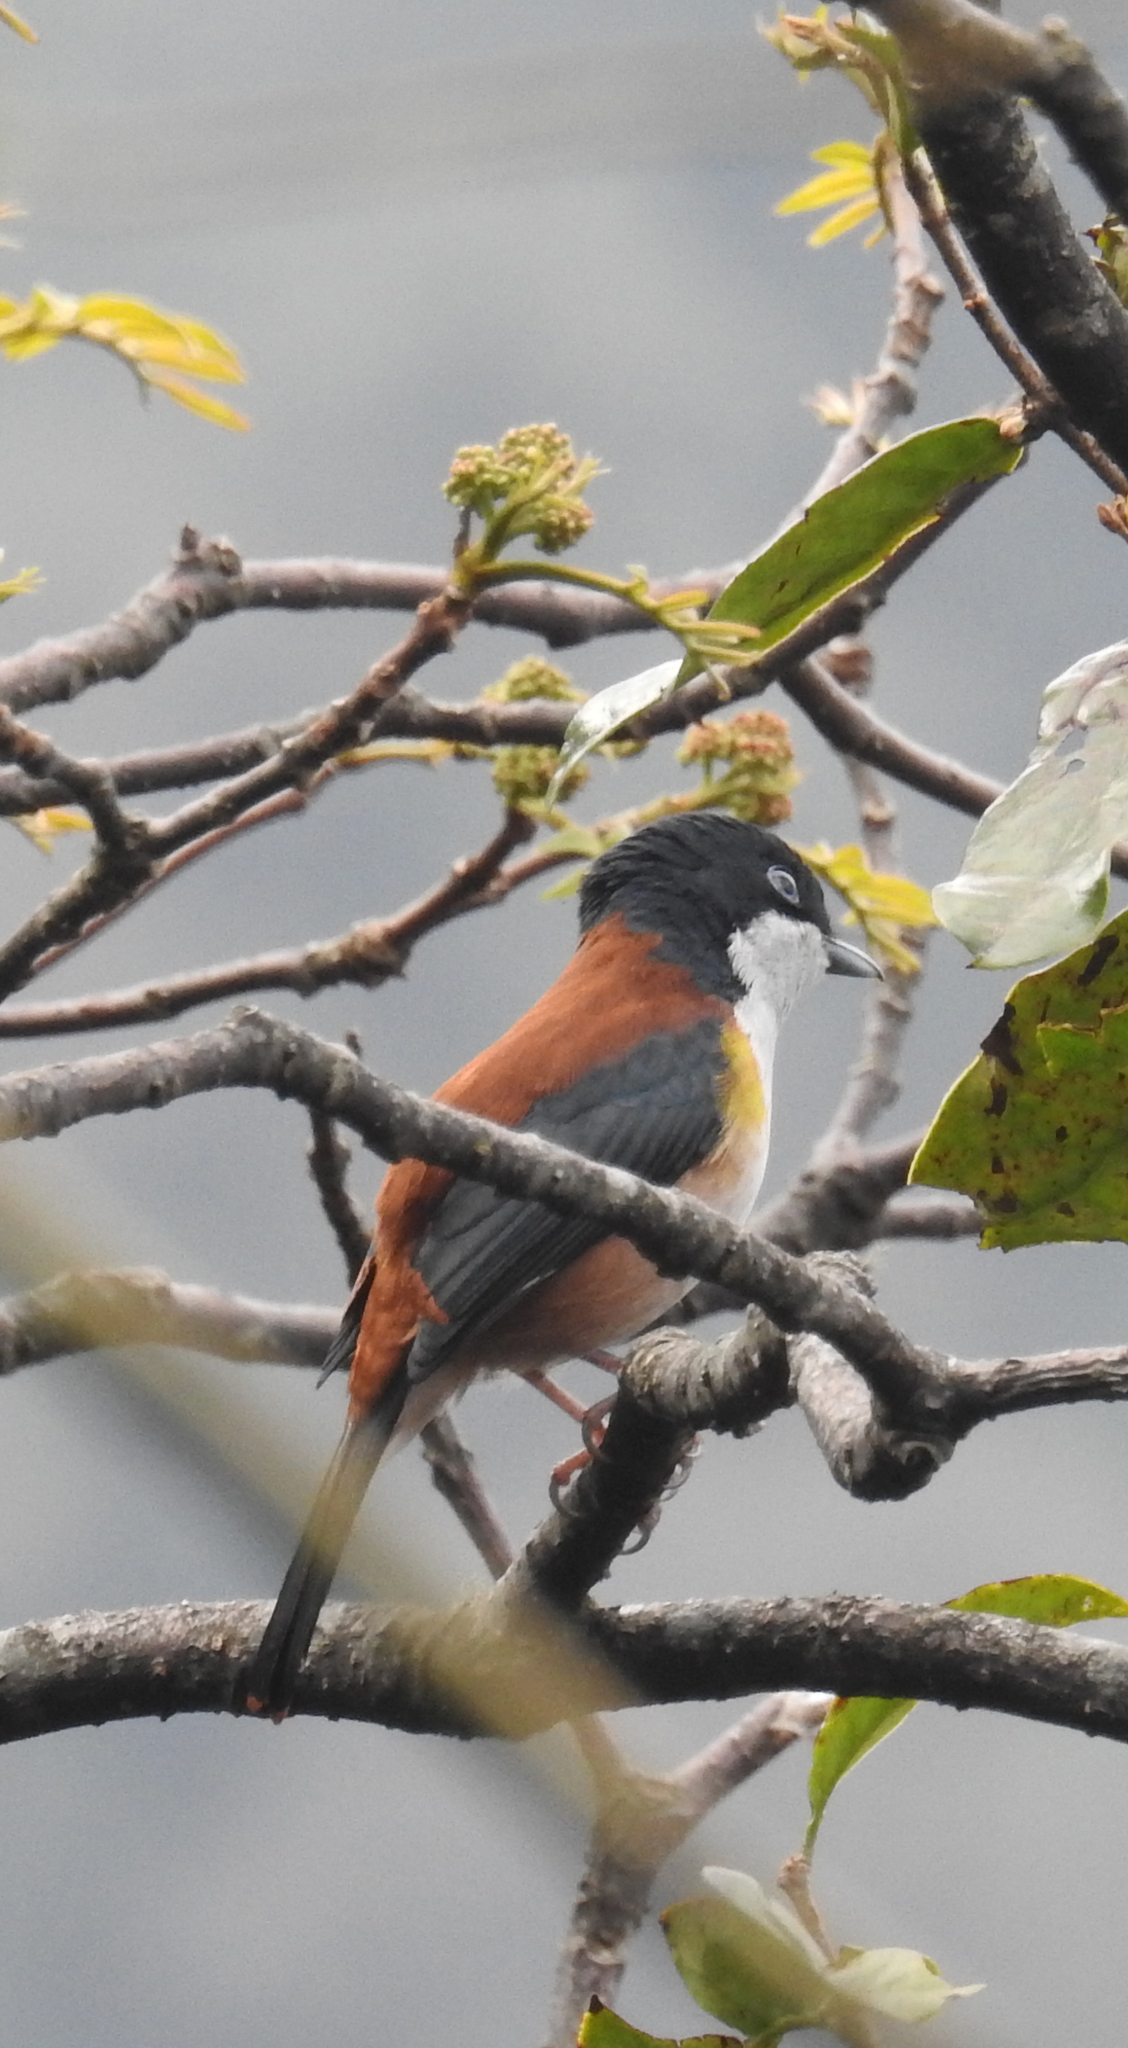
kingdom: Animalia
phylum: Chordata
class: Aves
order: Passeriformes
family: Vireonidae
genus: Pteruthius
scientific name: Pteruthius rufiventer
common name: Black-headed shrike-babbler
